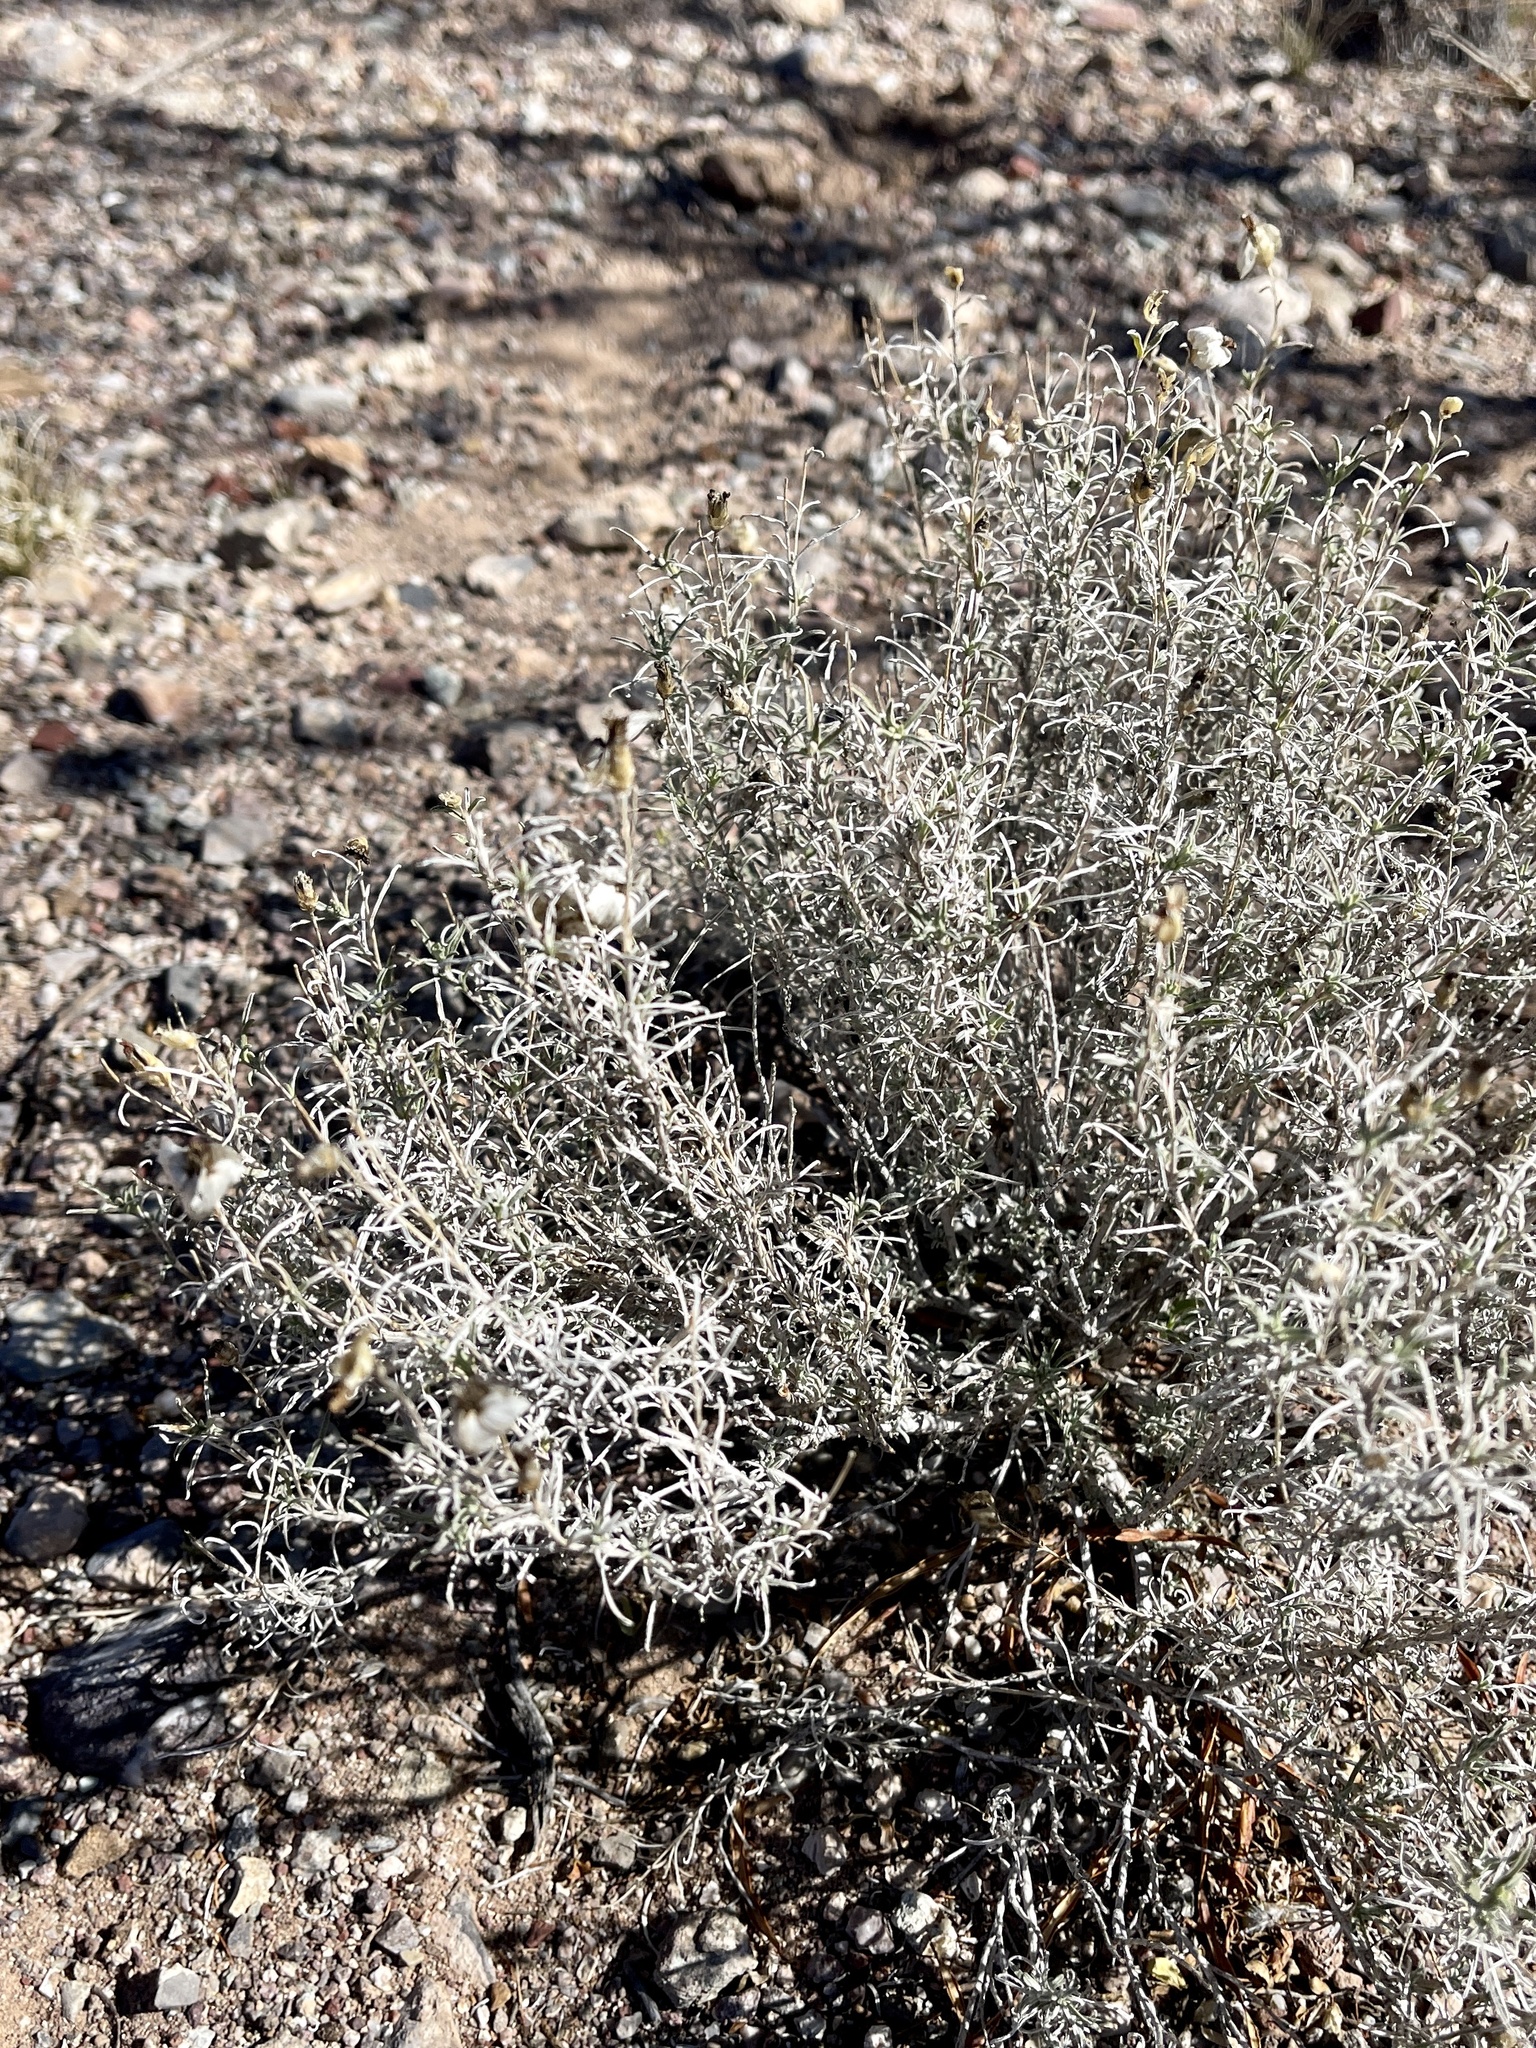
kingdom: Plantae
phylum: Tracheophyta
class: Magnoliopsida
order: Asterales
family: Asteraceae
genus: Zinnia
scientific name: Zinnia acerosa
